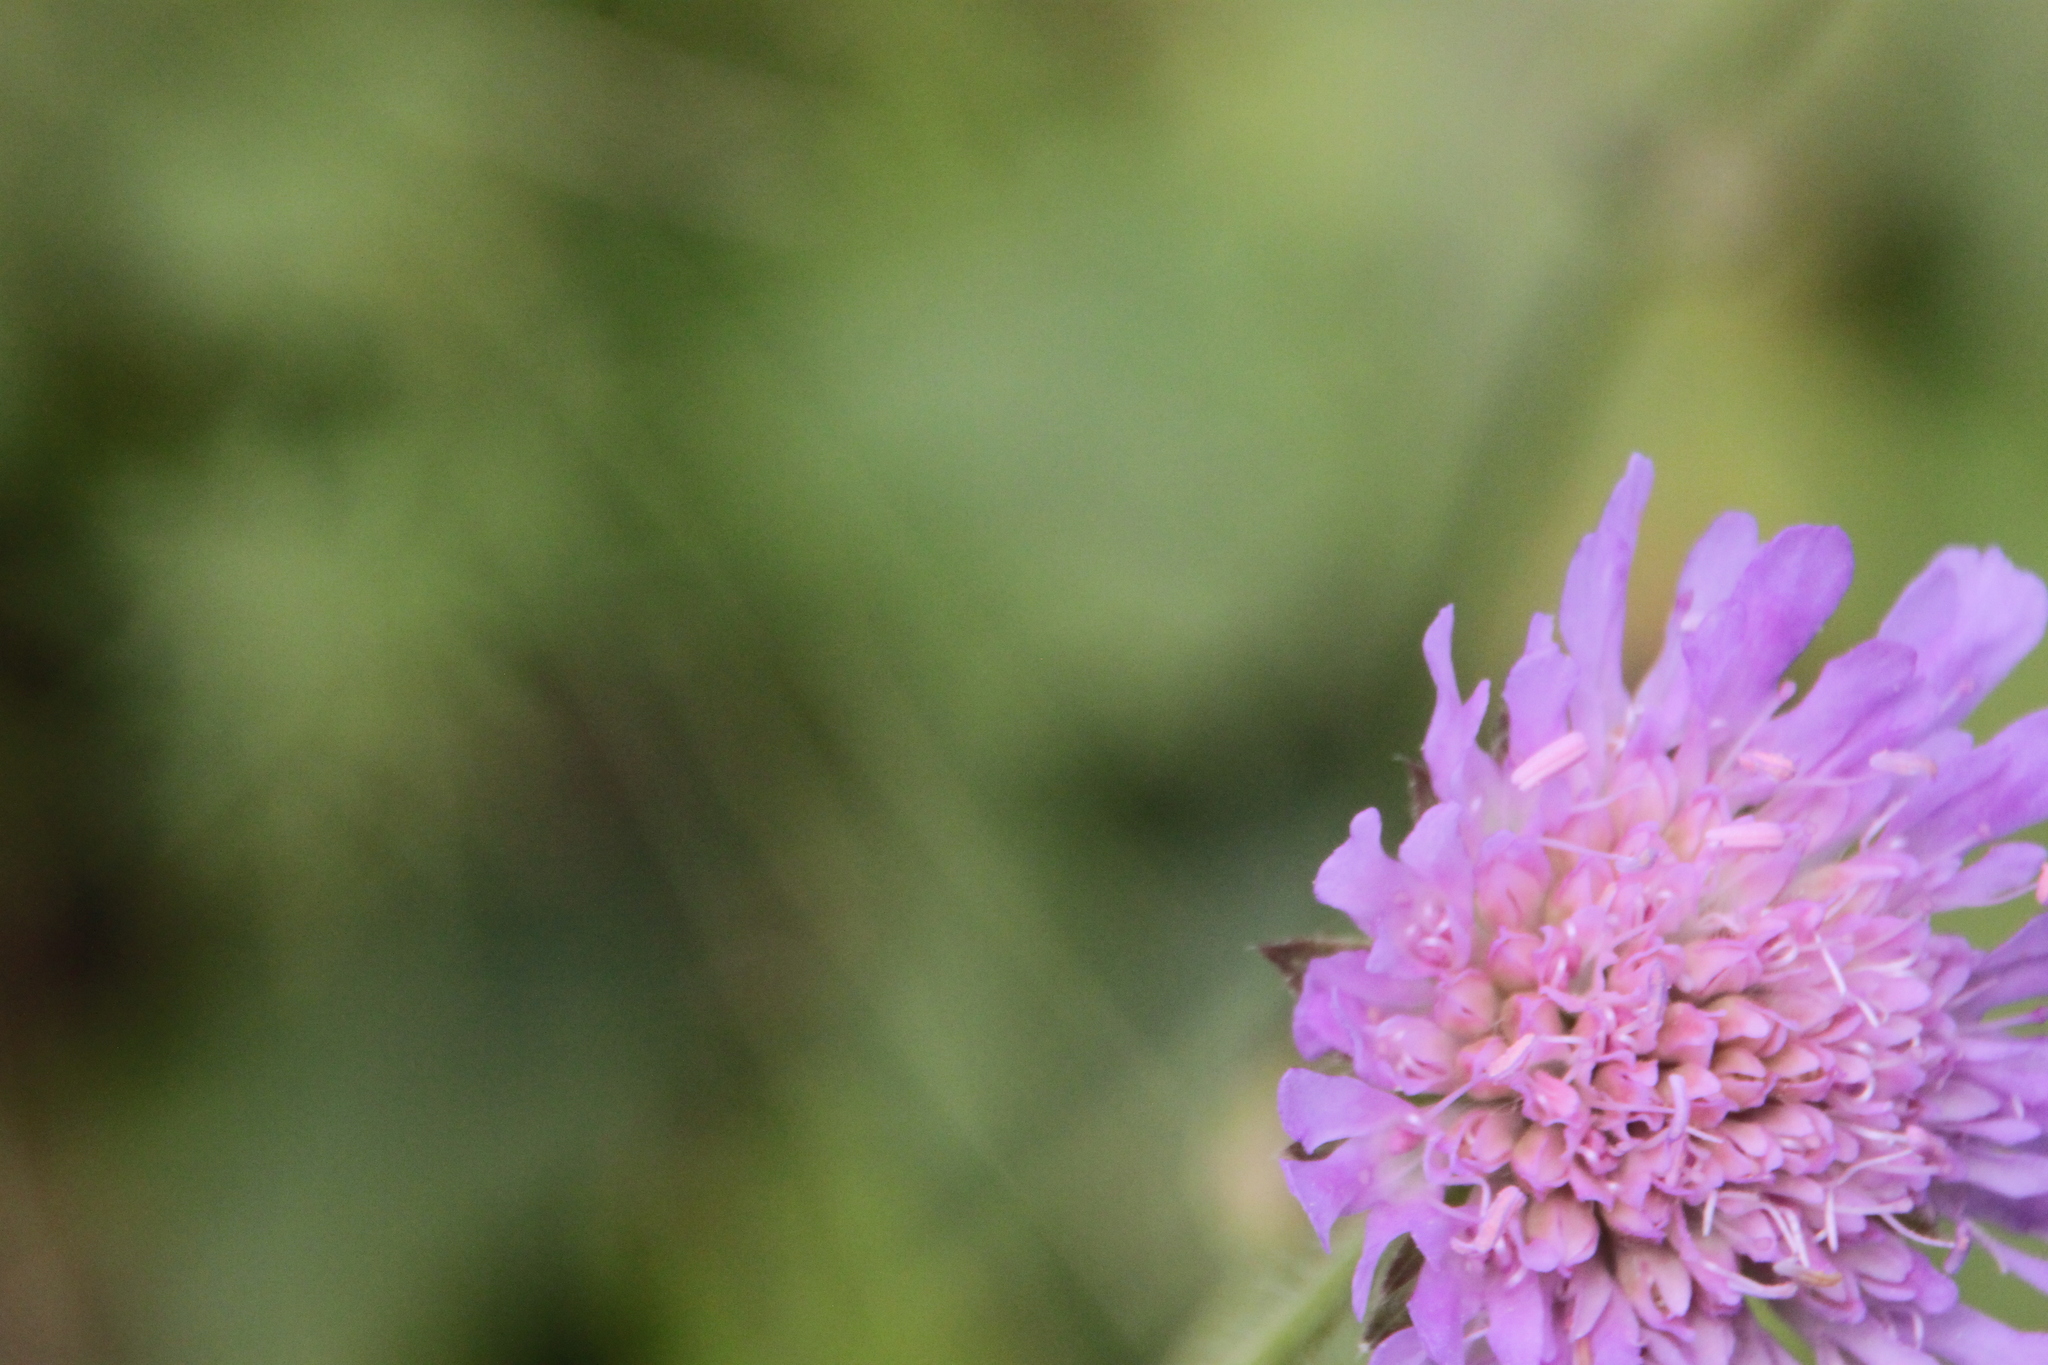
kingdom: Plantae
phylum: Tracheophyta
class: Magnoliopsida
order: Dipsacales
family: Caprifoliaceae
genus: Knautia
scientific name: Knautia arvensis
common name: Field scabiosa
